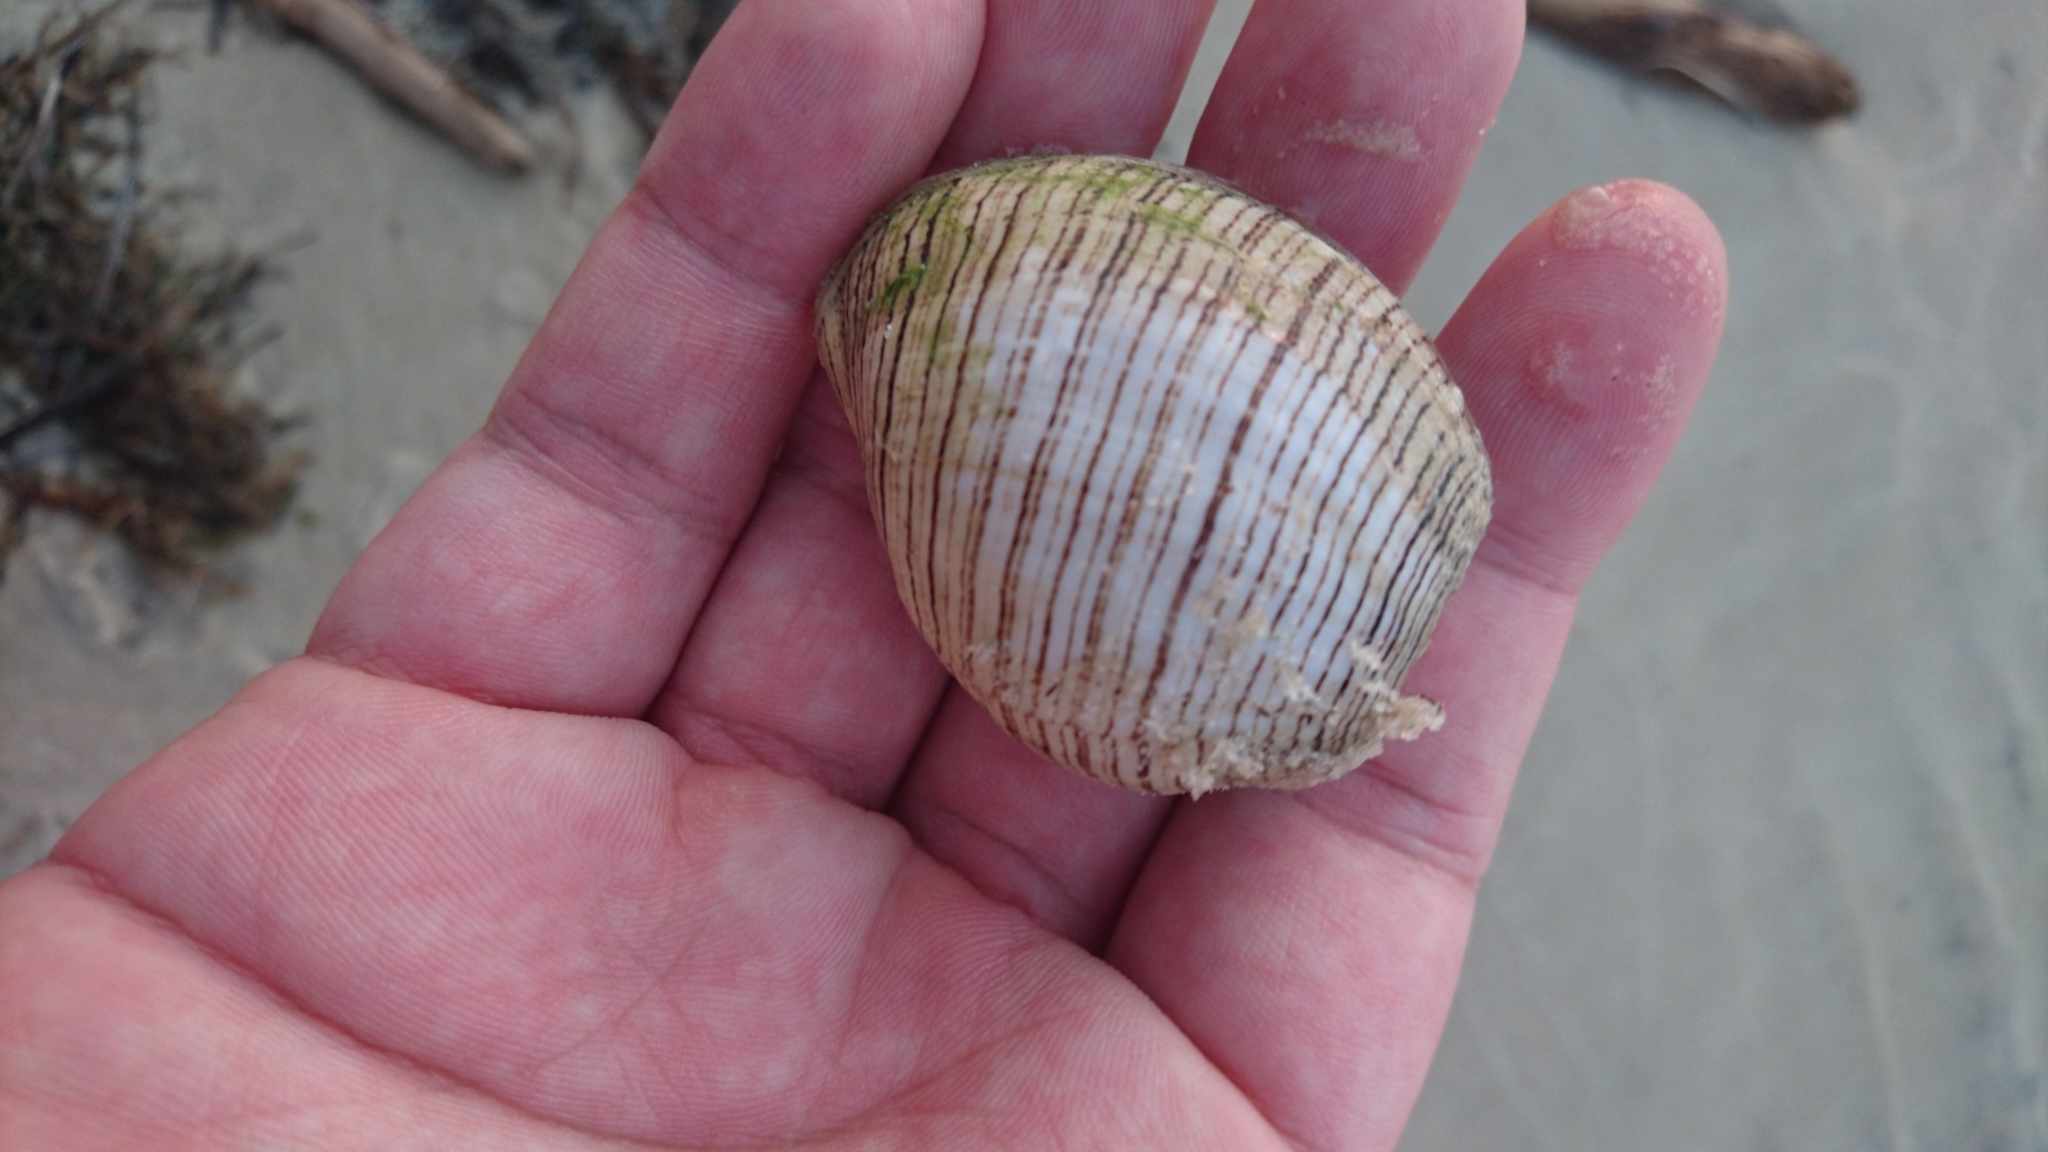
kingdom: Animalia
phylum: Mollusca
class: Gastropoda
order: Cephalaspidea
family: Aplustridae
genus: Hydatina
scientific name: Hydatina physis
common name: Brown-line paperbubble
